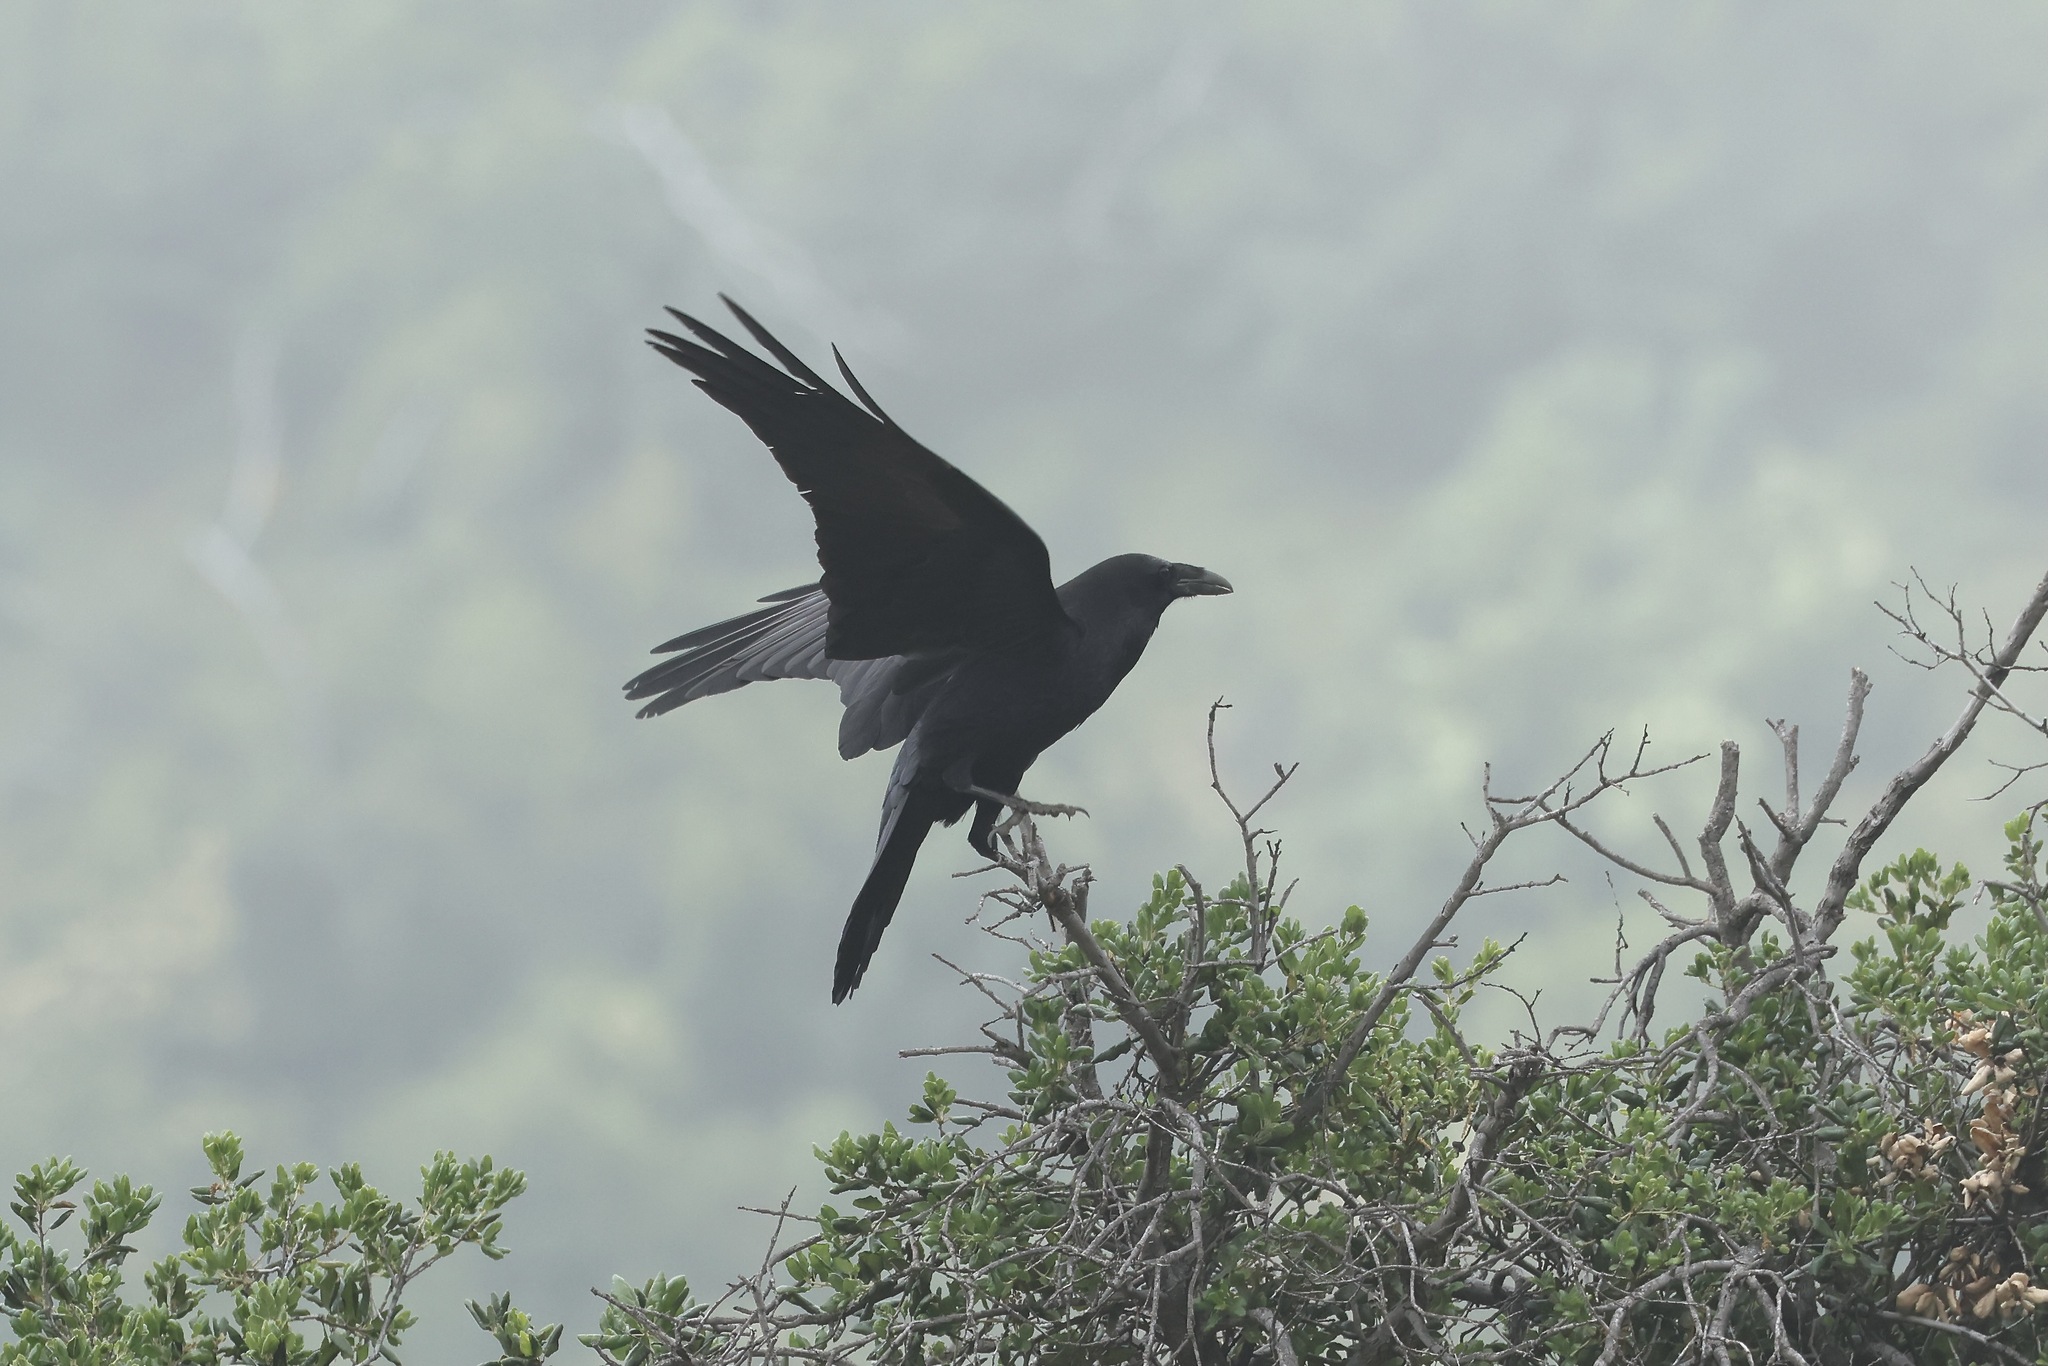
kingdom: Animalia
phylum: Chordata
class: Aves
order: Passeriformes
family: Corvidae
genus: Corvus
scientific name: Corvus corax
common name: Common raven
